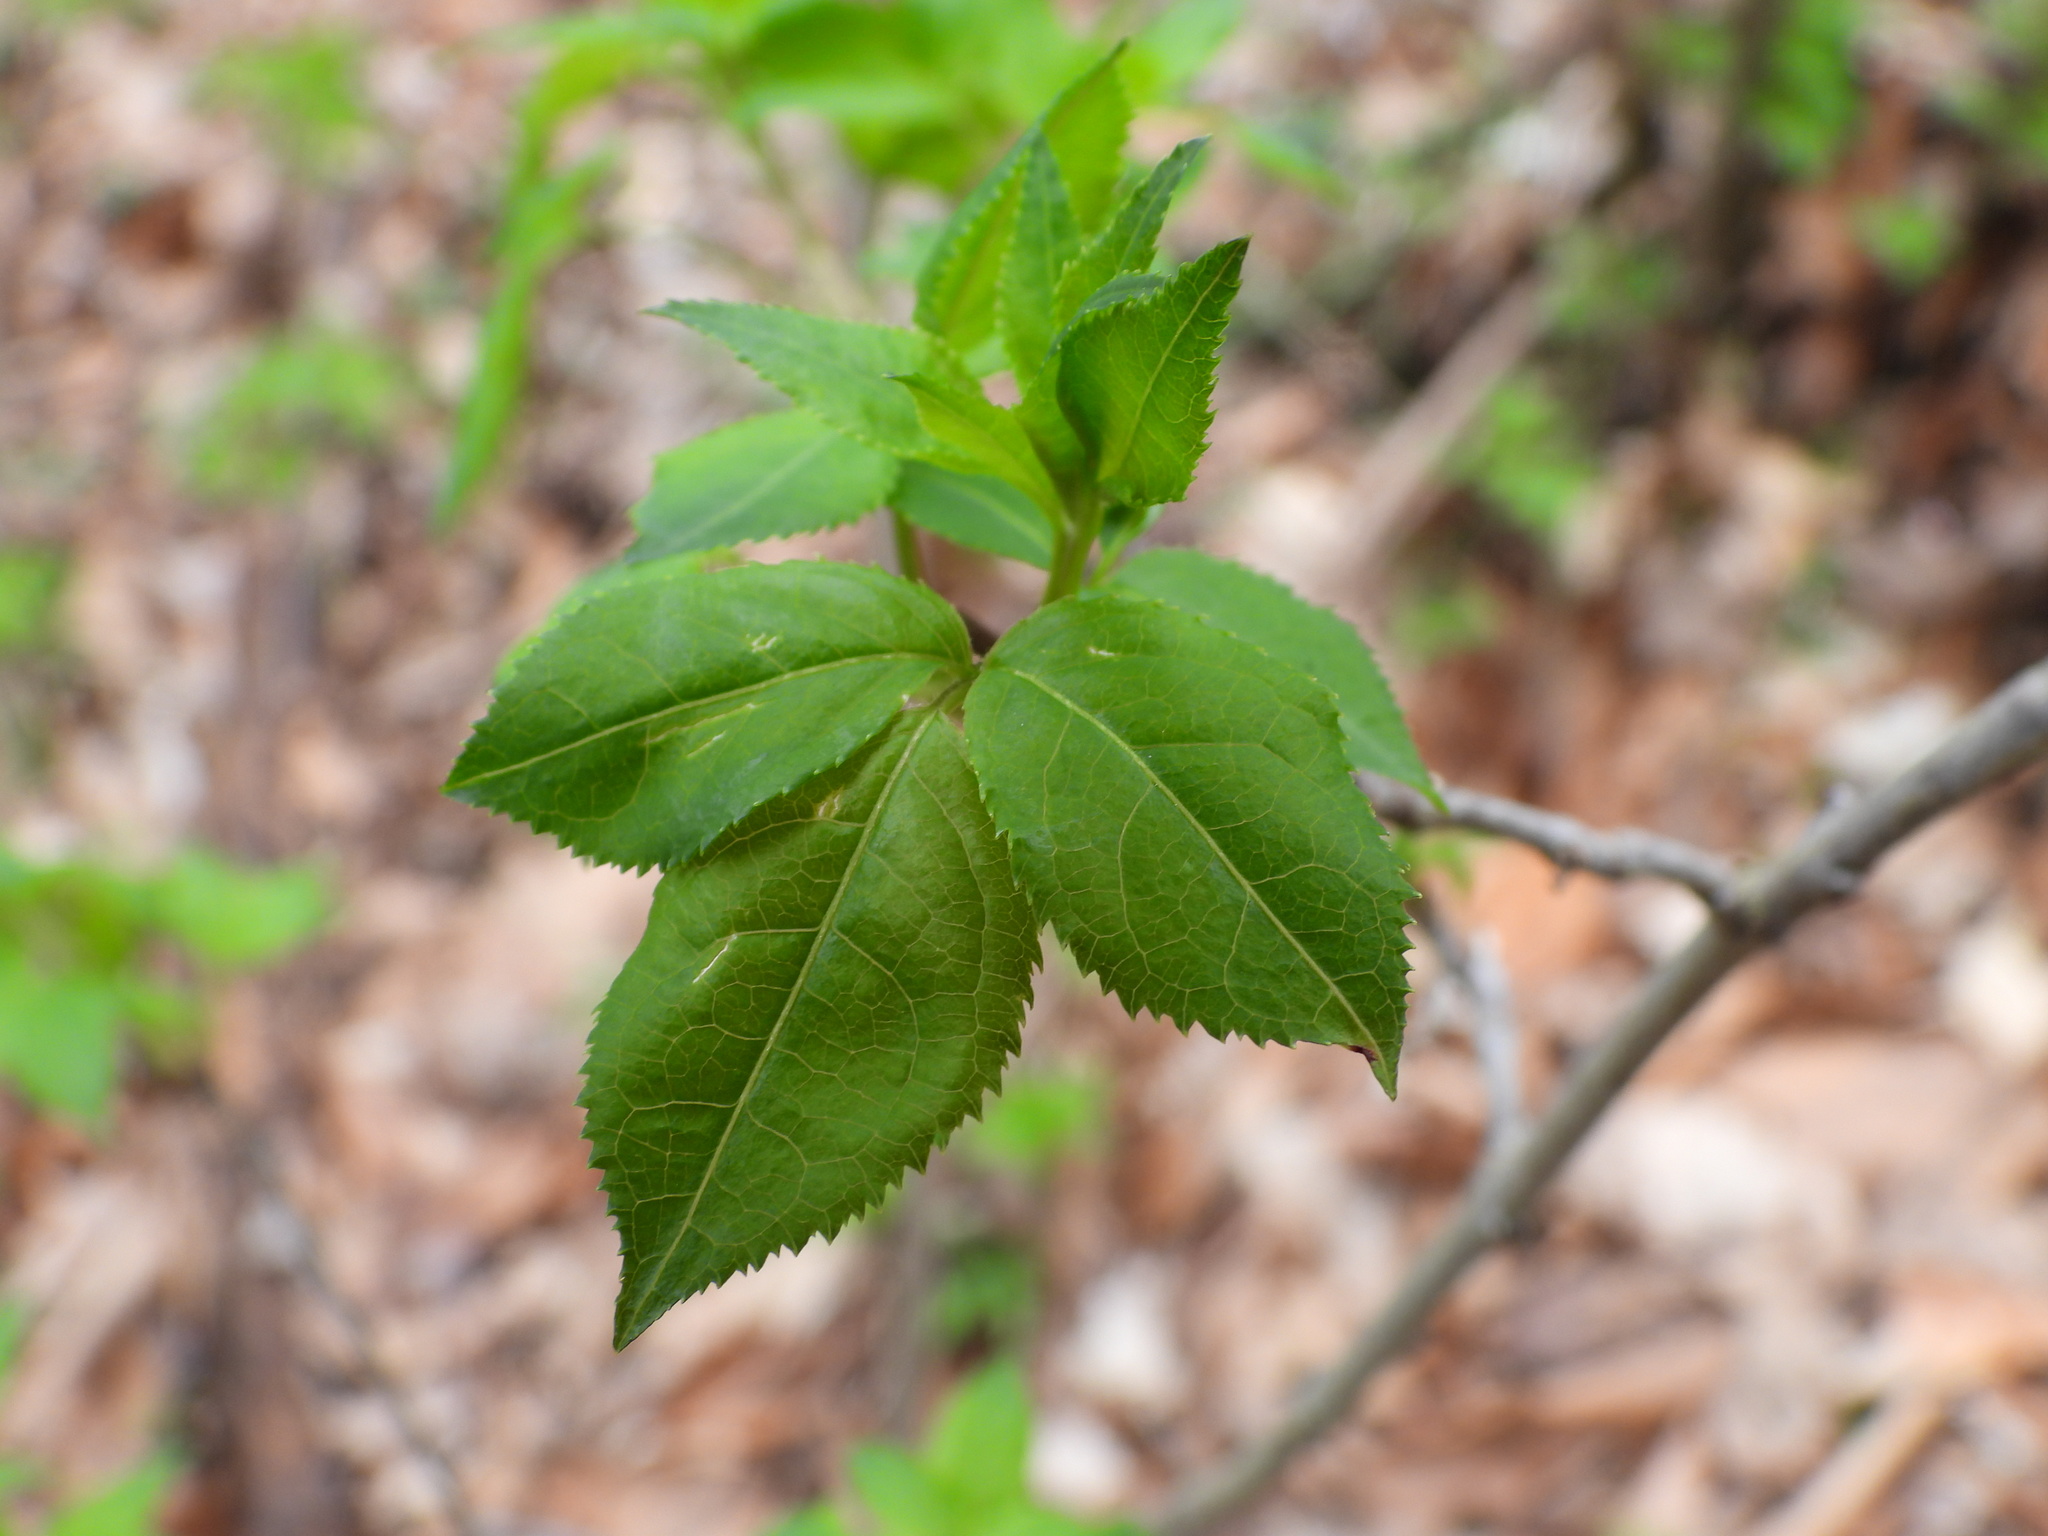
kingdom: Plantae
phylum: Tracheophyta
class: Magnoliopsida
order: Crossosomatales
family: Staphyleaceae
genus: Staphylea
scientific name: Staphylea trifolia
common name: American bladdernut
